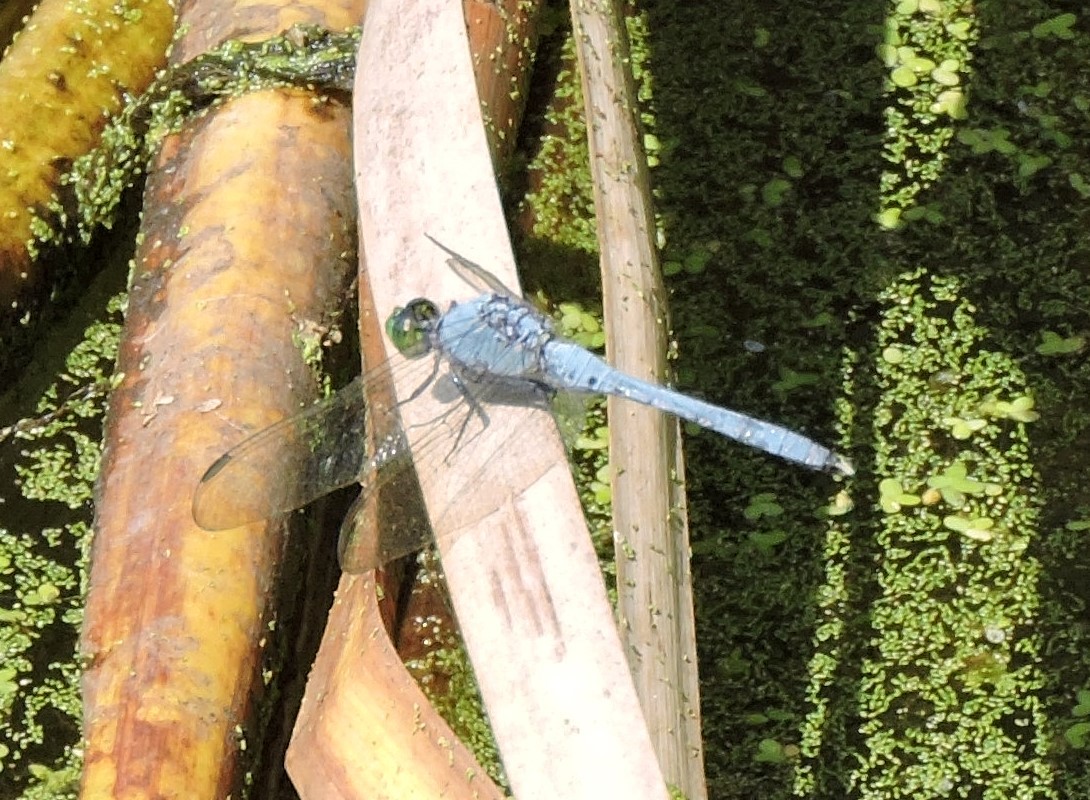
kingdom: Animalia
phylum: Arthropoda
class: Insecta
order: Odonata
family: Libellulidae
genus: Erythemis
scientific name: Erythemis simplicicollis
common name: Eastern pondhawk
